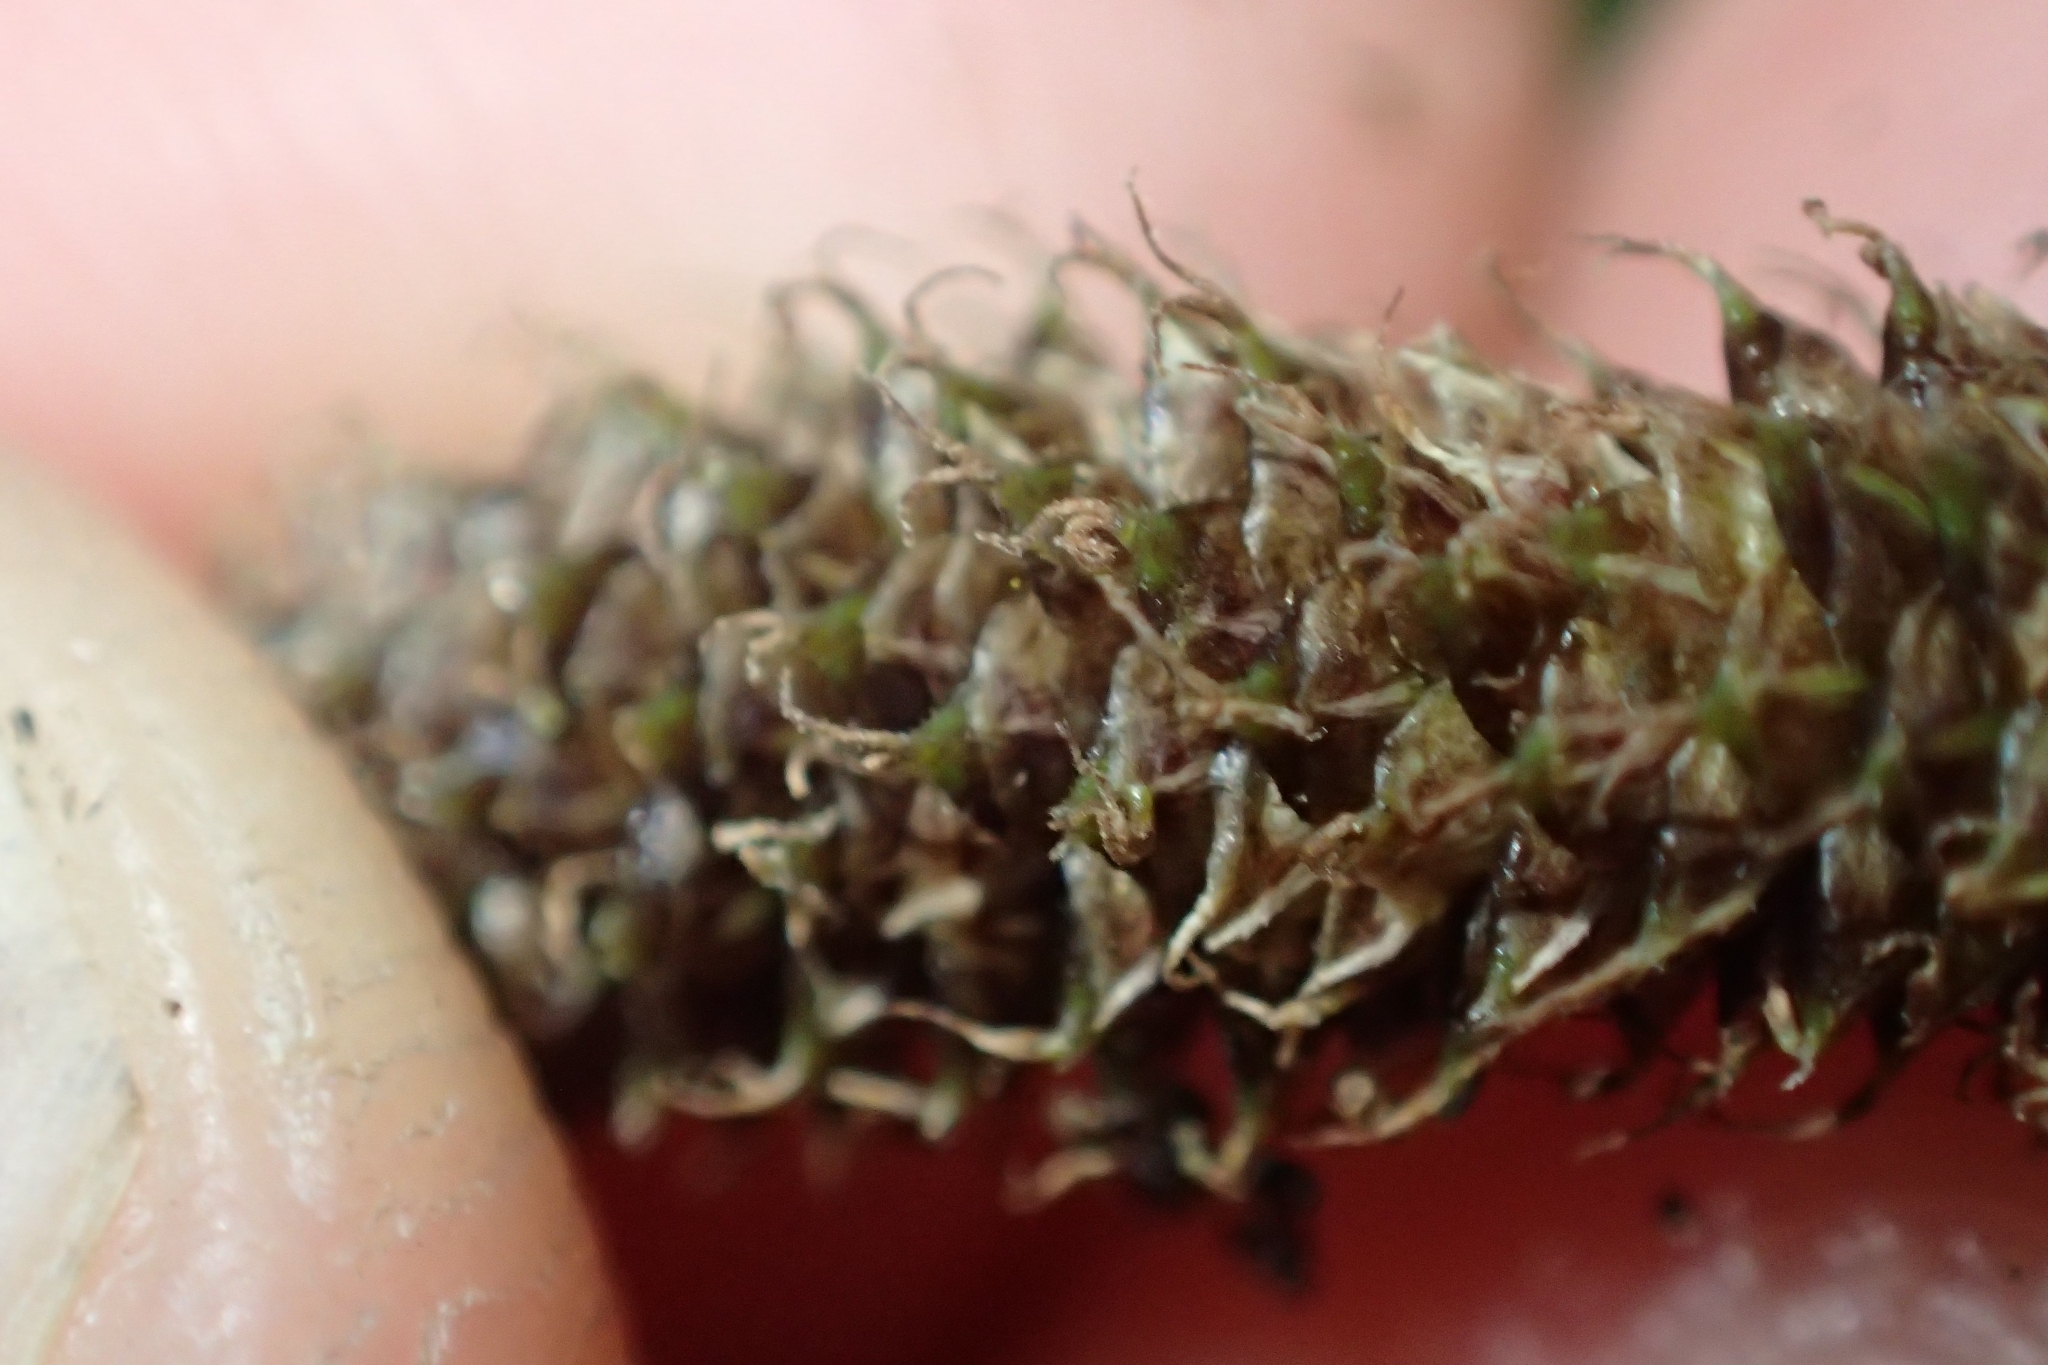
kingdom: Plantae
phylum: Tracheophyta
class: Liliopsida
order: Poales
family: Cyperaceae
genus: Carex
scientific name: Carex dipsacea
